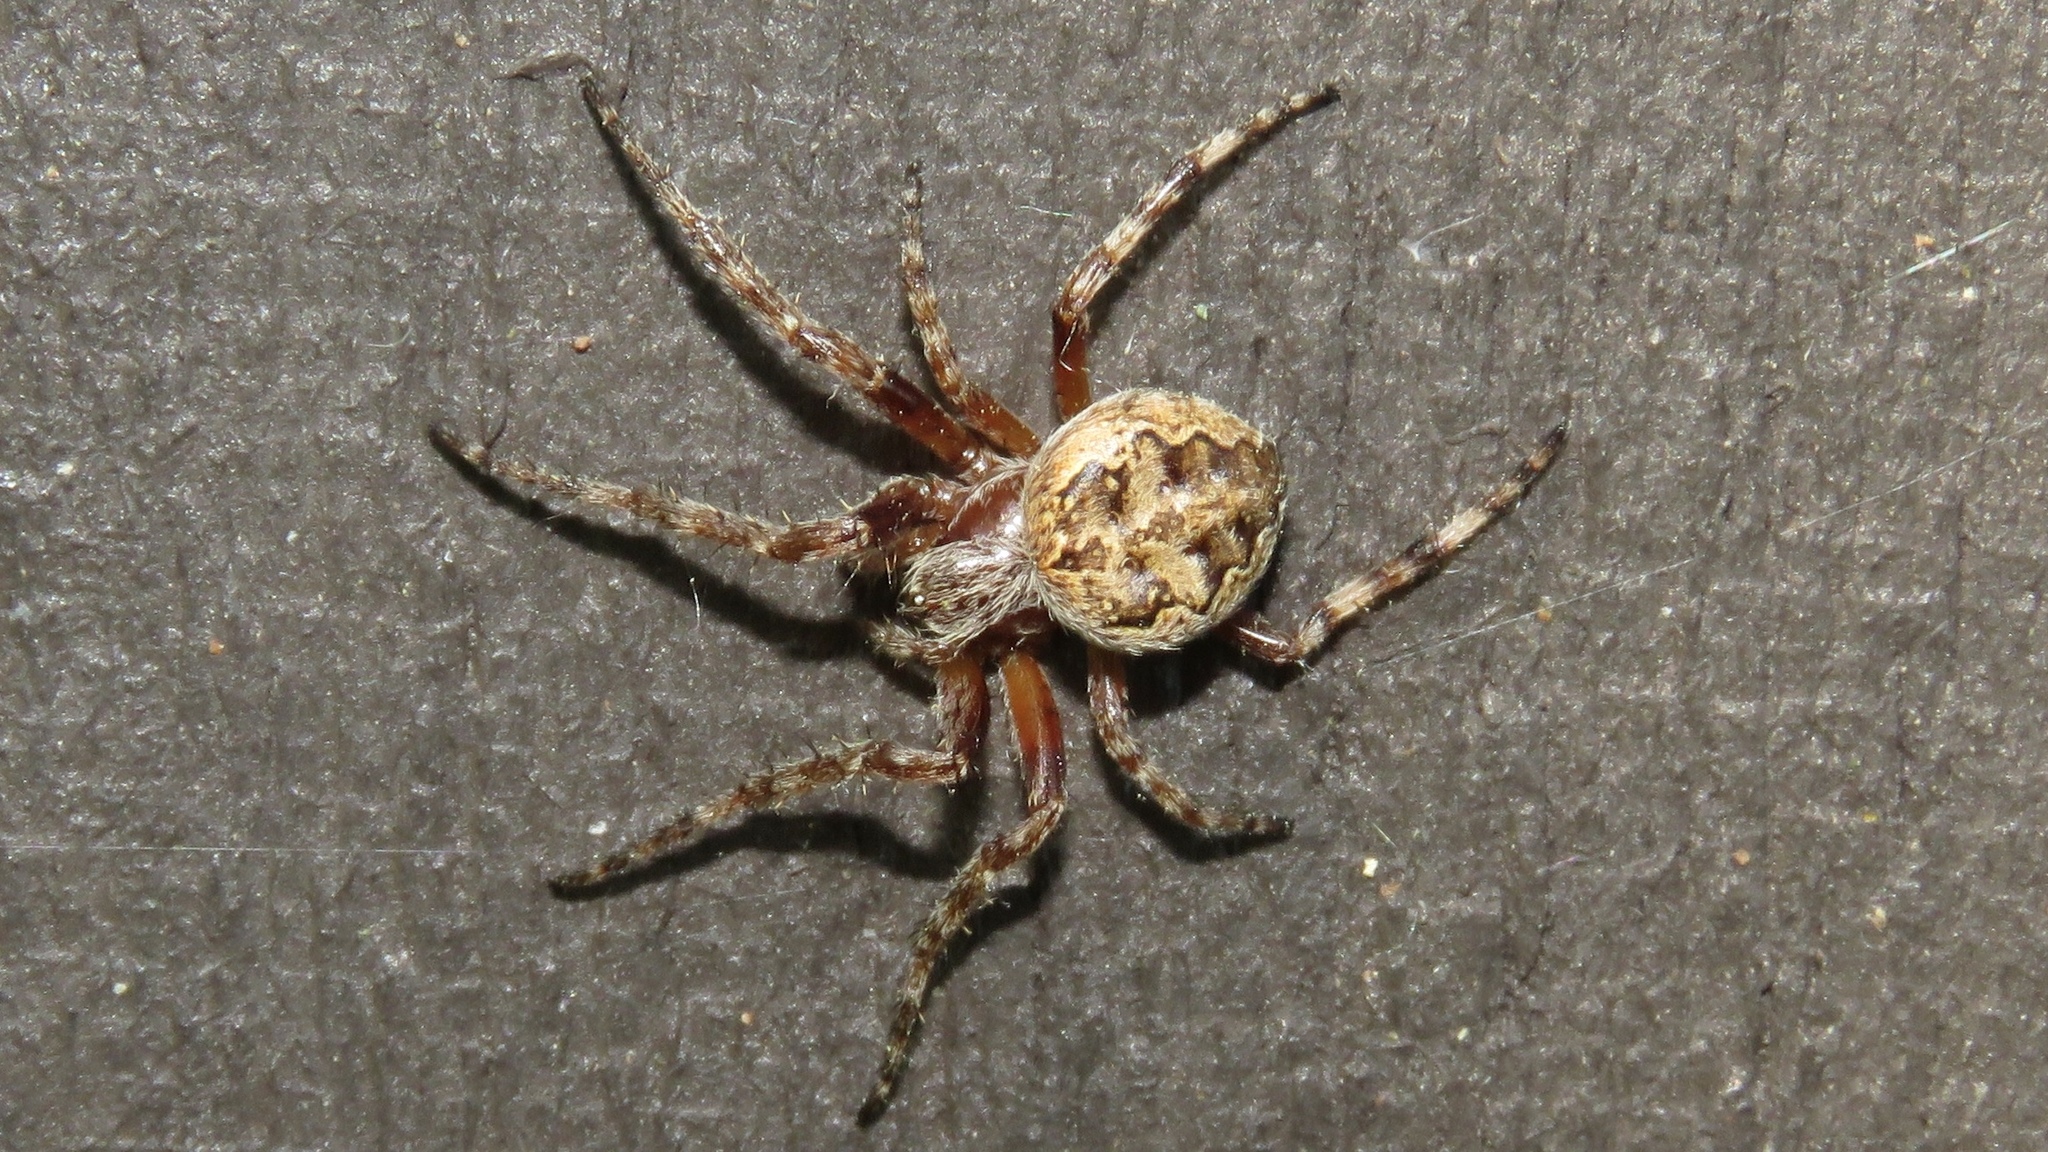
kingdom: Animalia
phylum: Arthropoda
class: Arachnida
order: Araneae
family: Araneidae
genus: Larinioides
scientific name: Larinioides patagiatus
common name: Ornamental orbweaver
